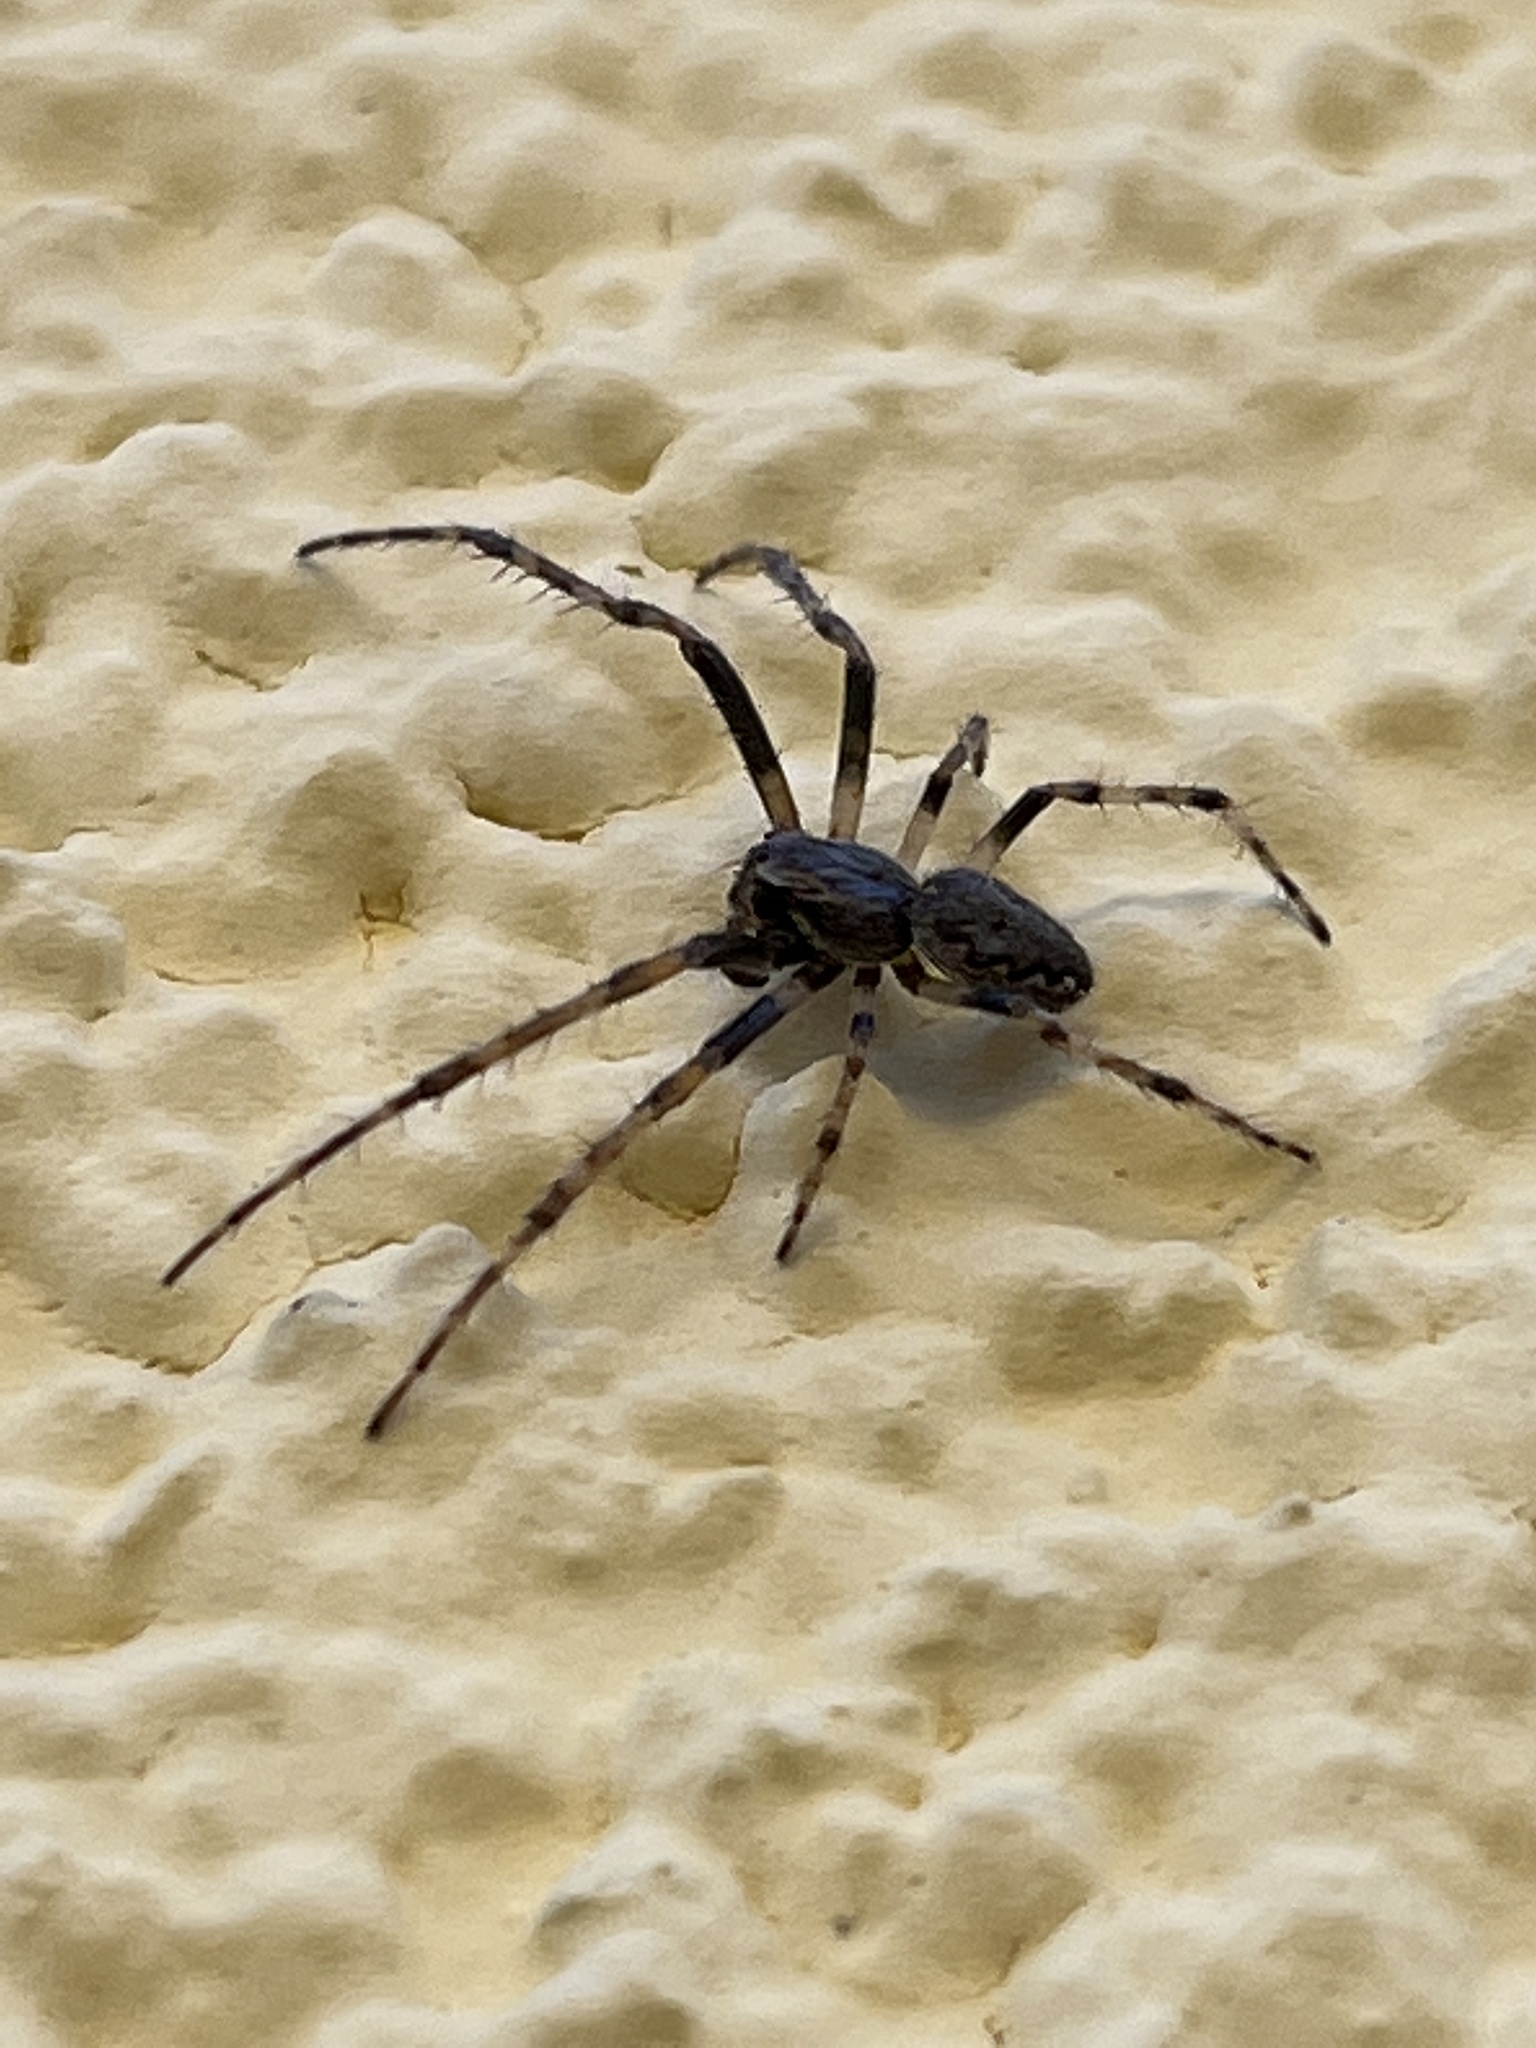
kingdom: Animalia
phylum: Arthropoda
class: Arachnida
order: Araneae
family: Araneidae
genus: Nuctenea
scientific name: Nuctenea umbratica
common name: Toad spider
